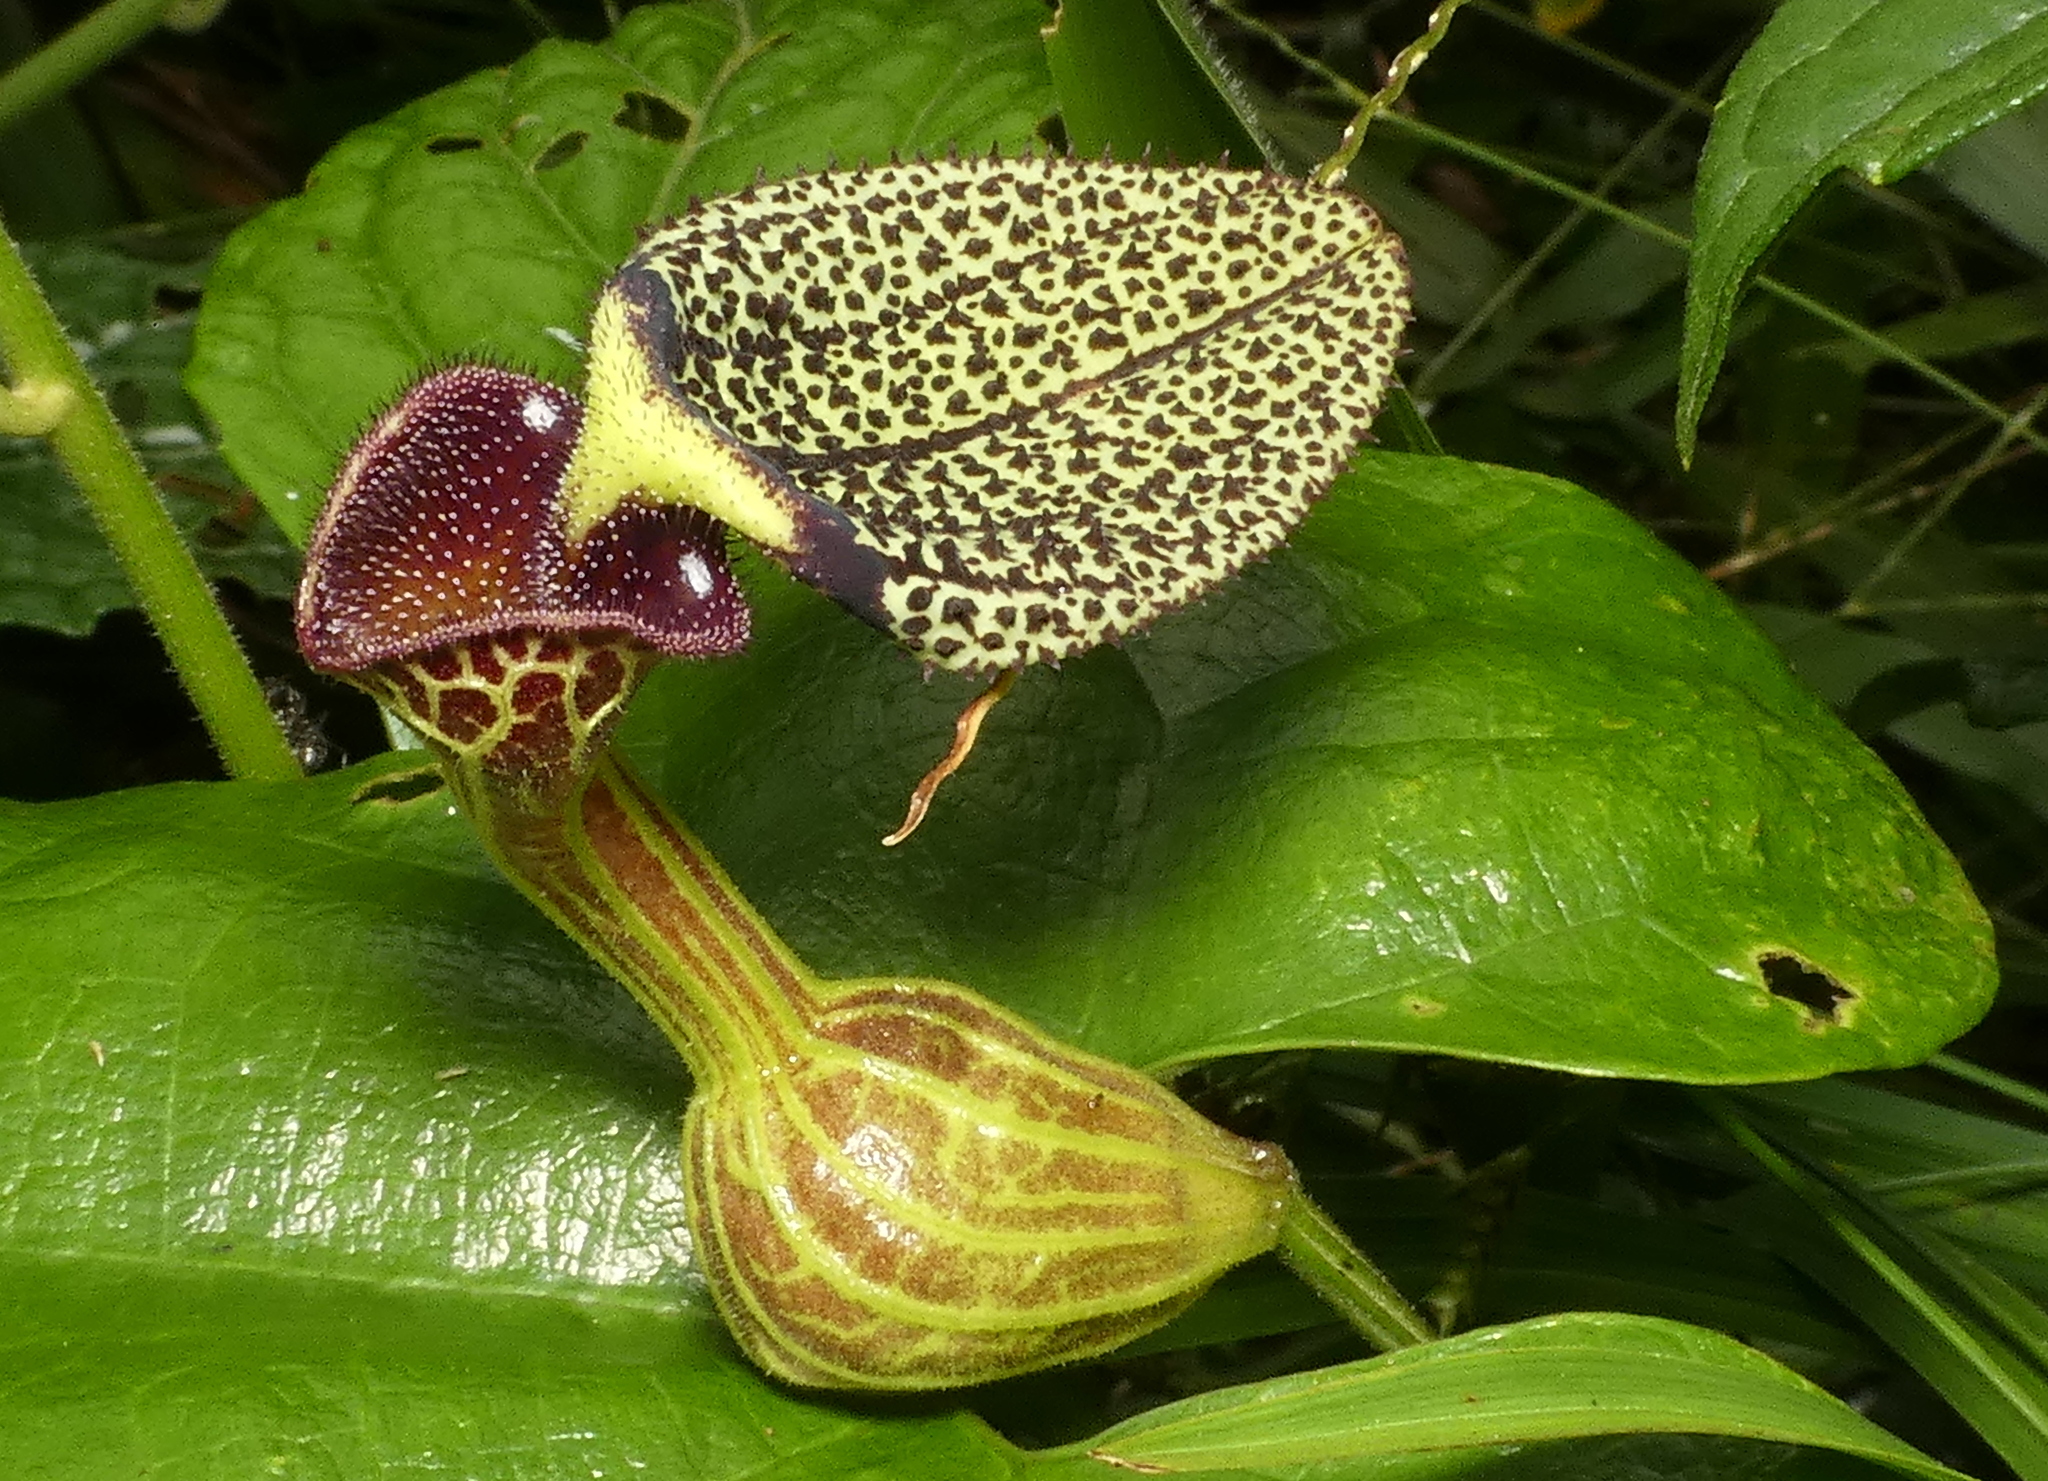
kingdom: Plantae
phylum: Tracheophyta
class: Magnoliopsida
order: Piperales
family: Aristolochiaceae
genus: Aristolochia
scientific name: Aristolochia papillaris
